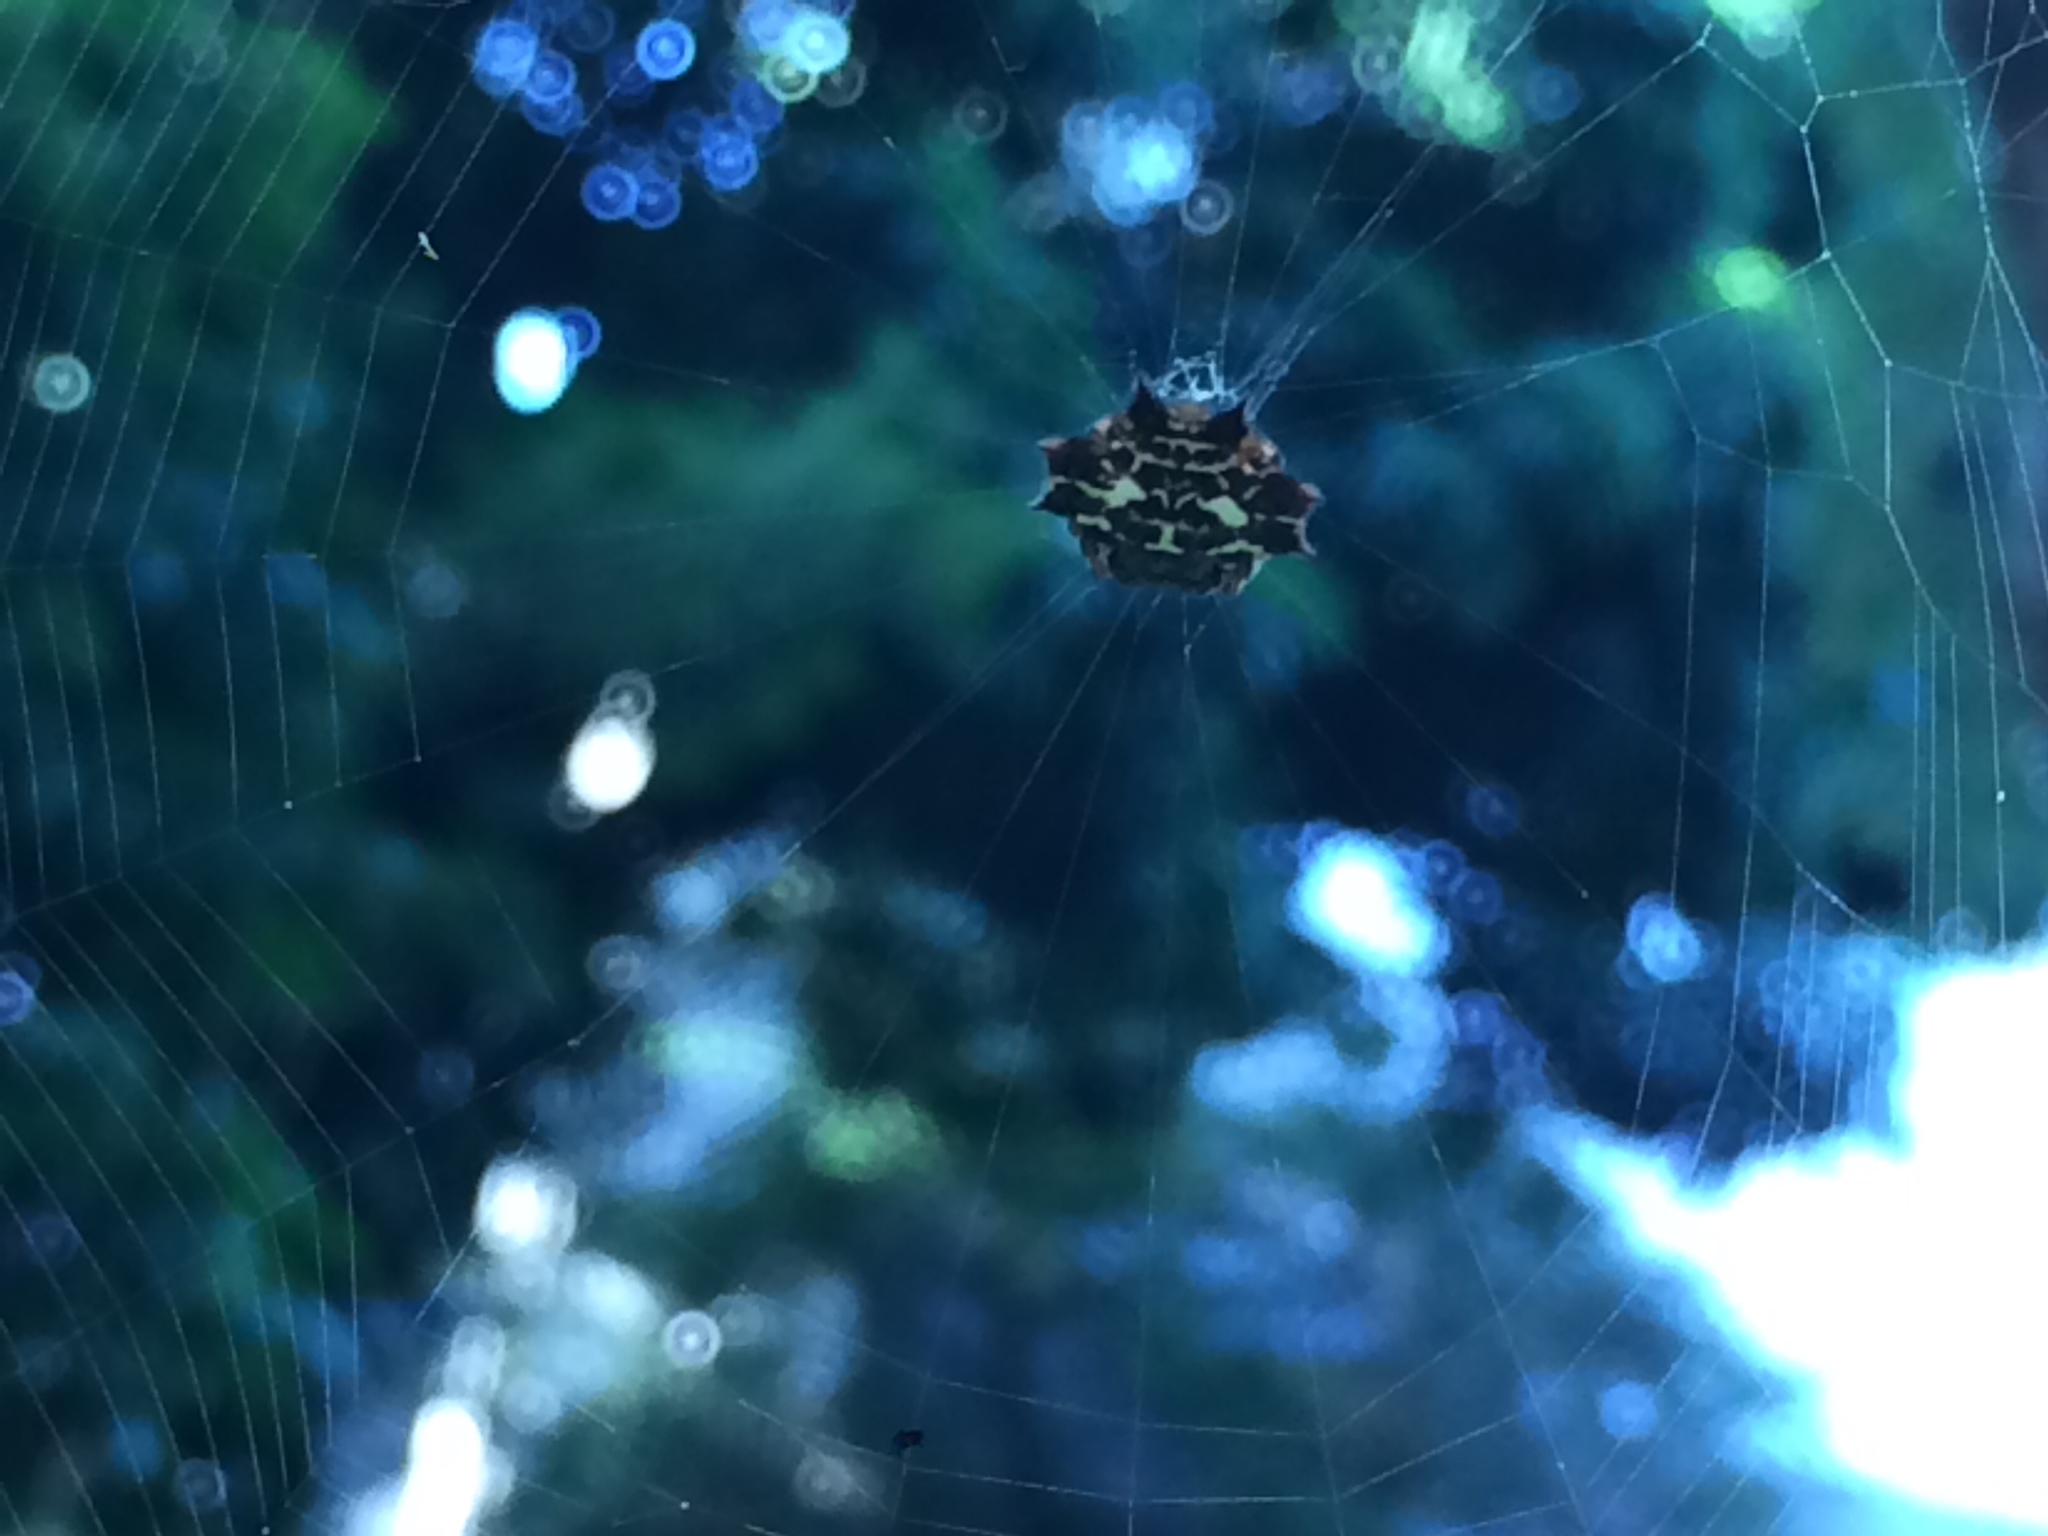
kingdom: Animalia
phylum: Arthropoda
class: Arachnida
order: Araneae
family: Araneidae
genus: Gasteracantha
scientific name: Gasteracantha cancriformis
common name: Orb weavers
